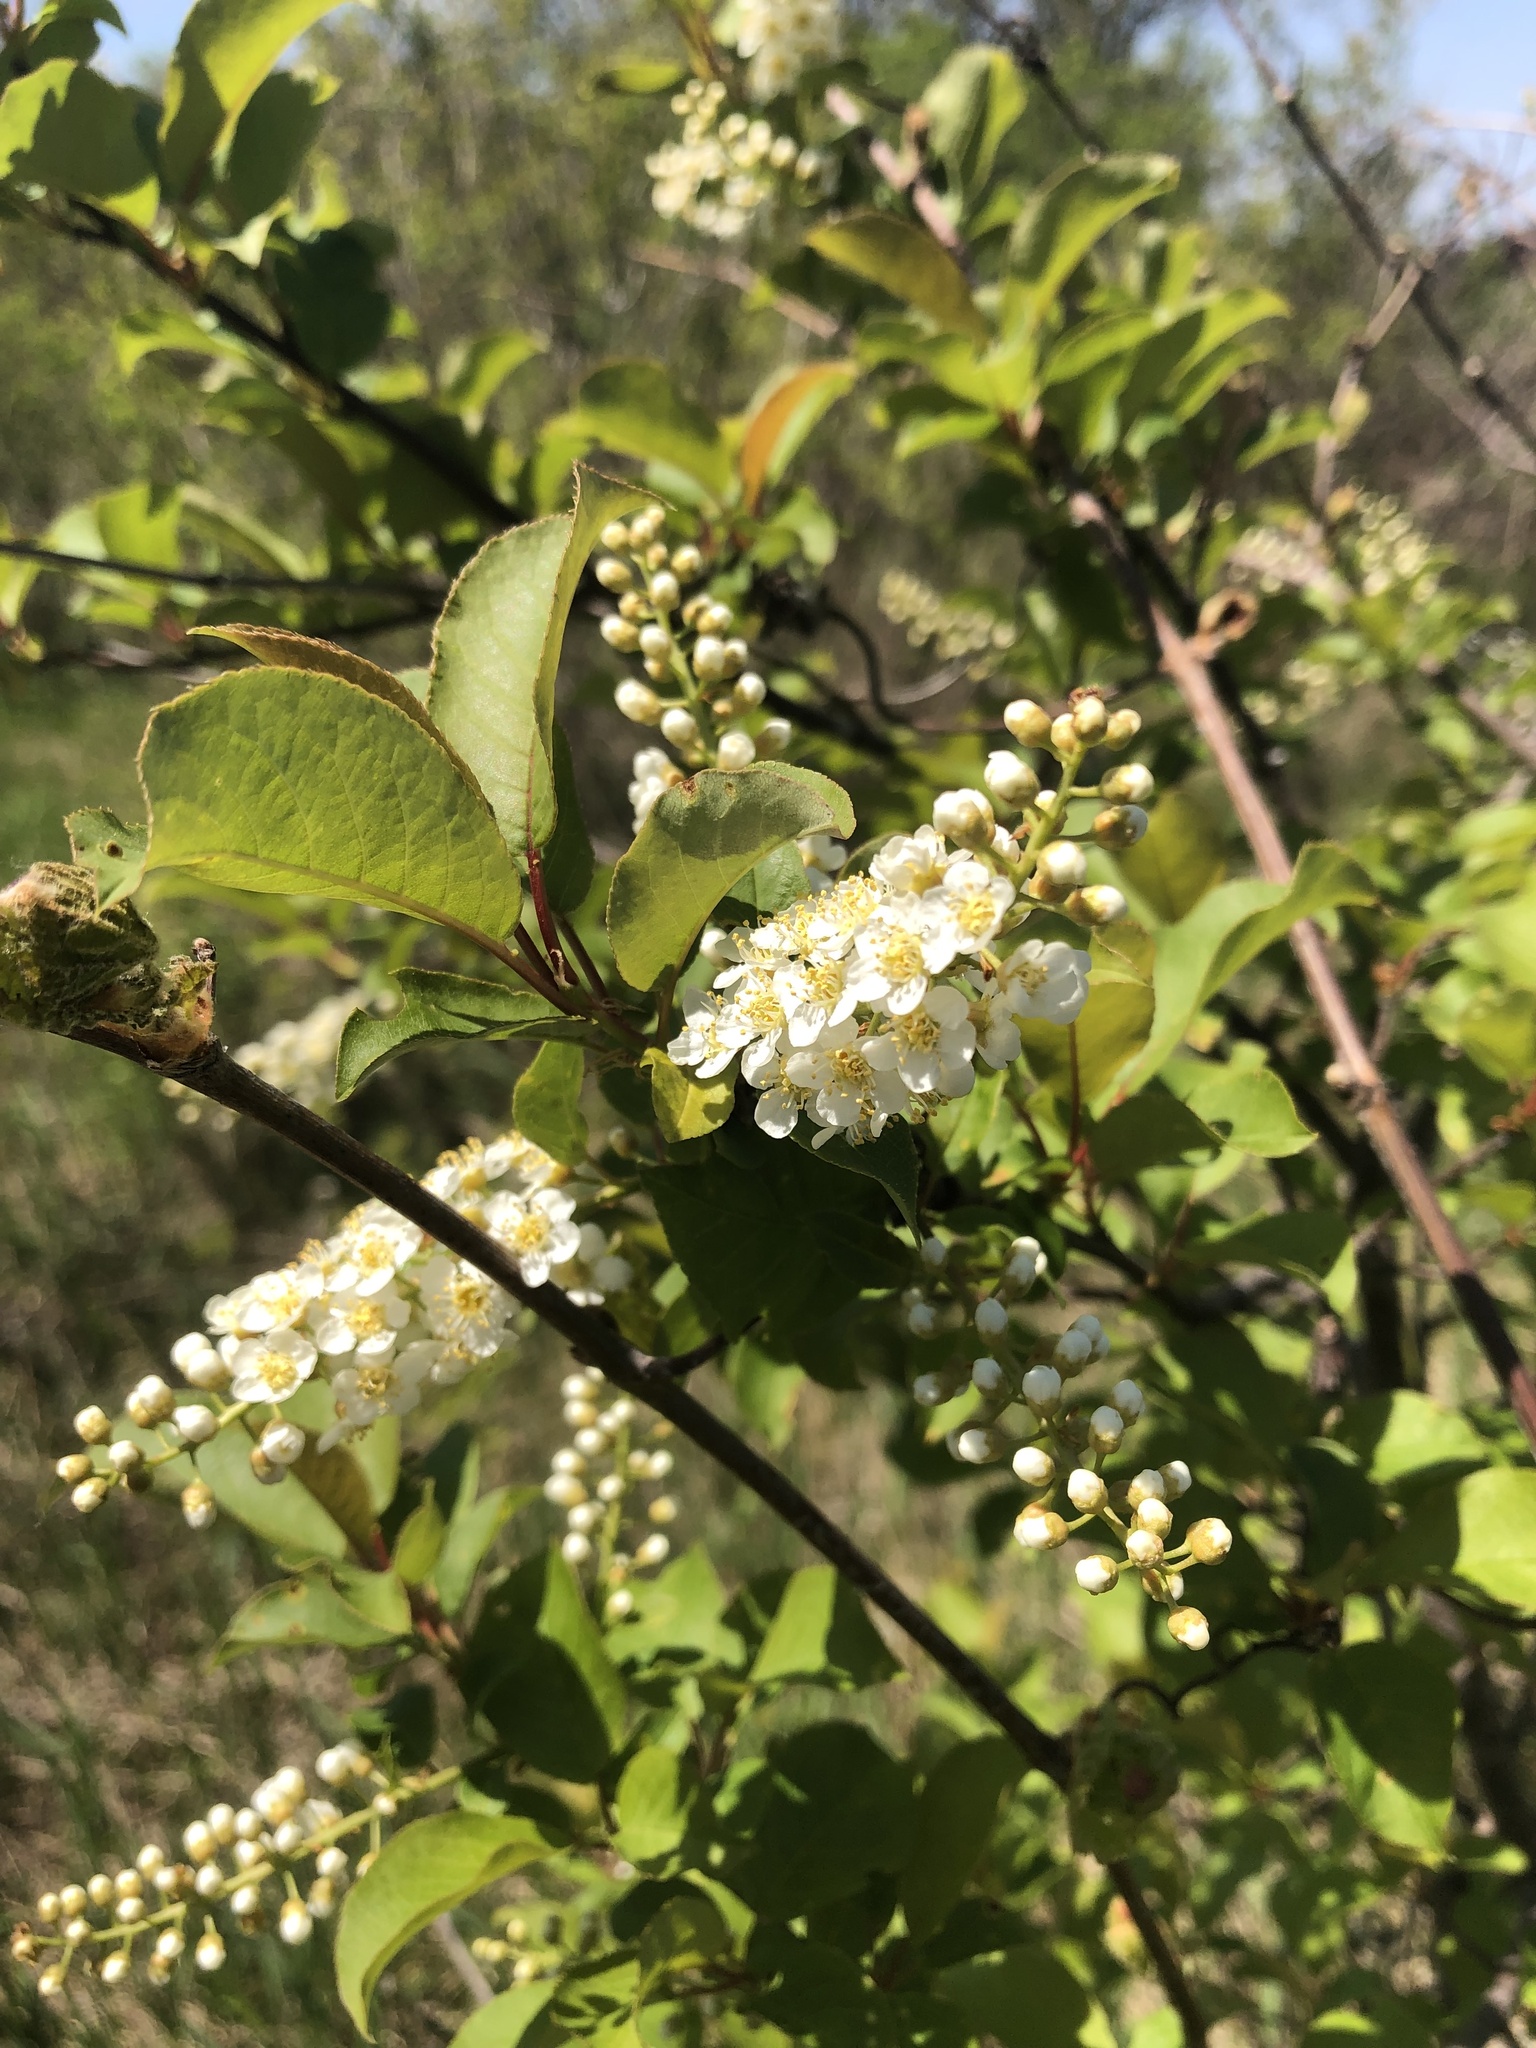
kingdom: Plantae
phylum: Tracheophyta
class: Magnoliopsida
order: Rosales
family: Rosaceae
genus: Prunus
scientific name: Prunus virginiana
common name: Chokecherry
